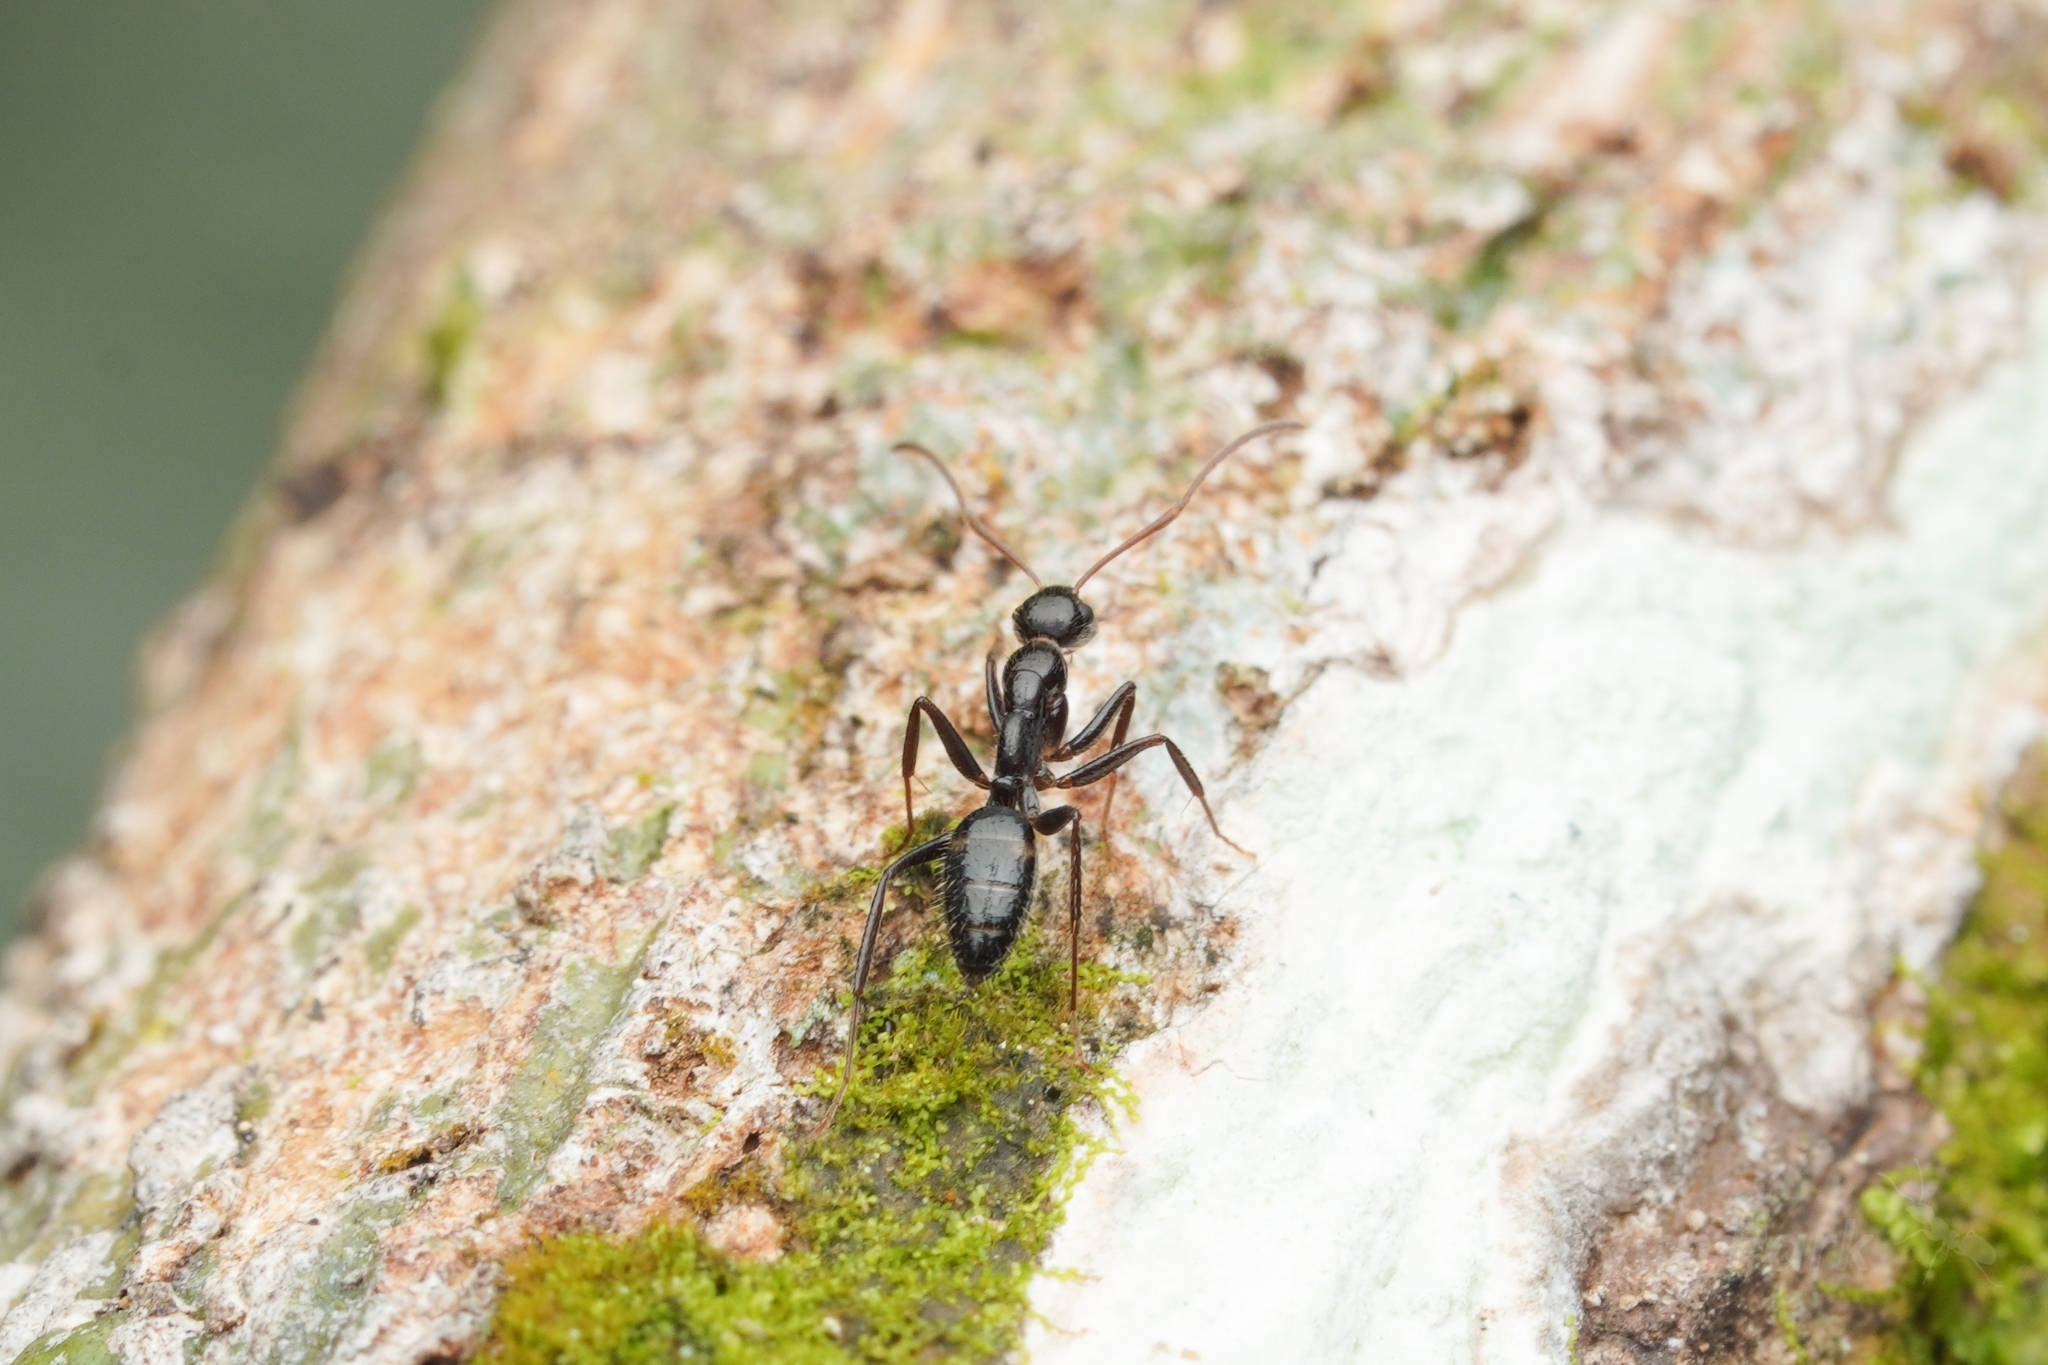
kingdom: Animalia
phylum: Arthropoda
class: Insecta
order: Hymenoptera
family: Formicidae
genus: Camponotus
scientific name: Camponotus sexguttatus
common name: Neotropical carpenter ant
